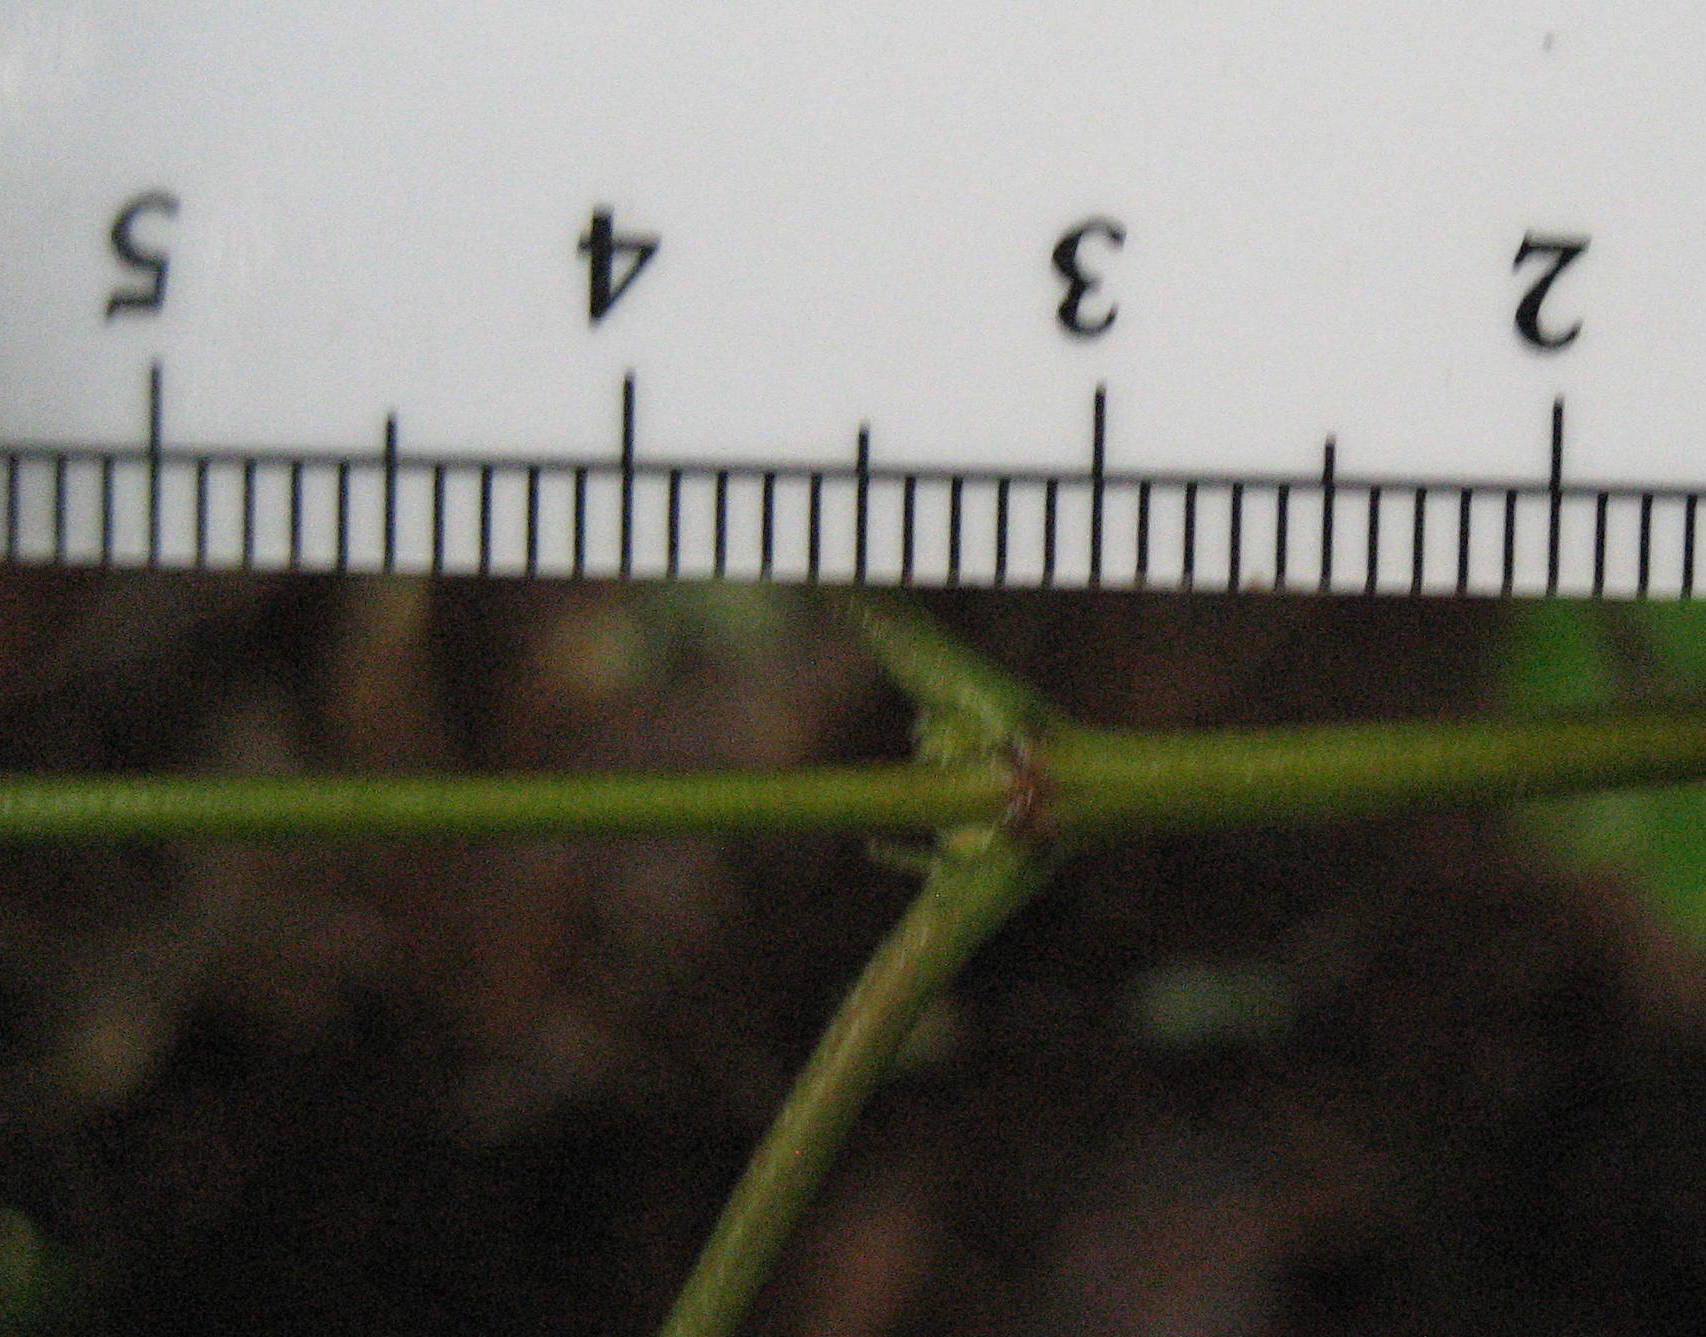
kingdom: Plantae
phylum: Tracheophyta
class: Magnoliopsida
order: Dipsacales
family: Viburnaceae
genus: Viburnum
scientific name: Viburnum acerifolium
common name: Dockmackie
